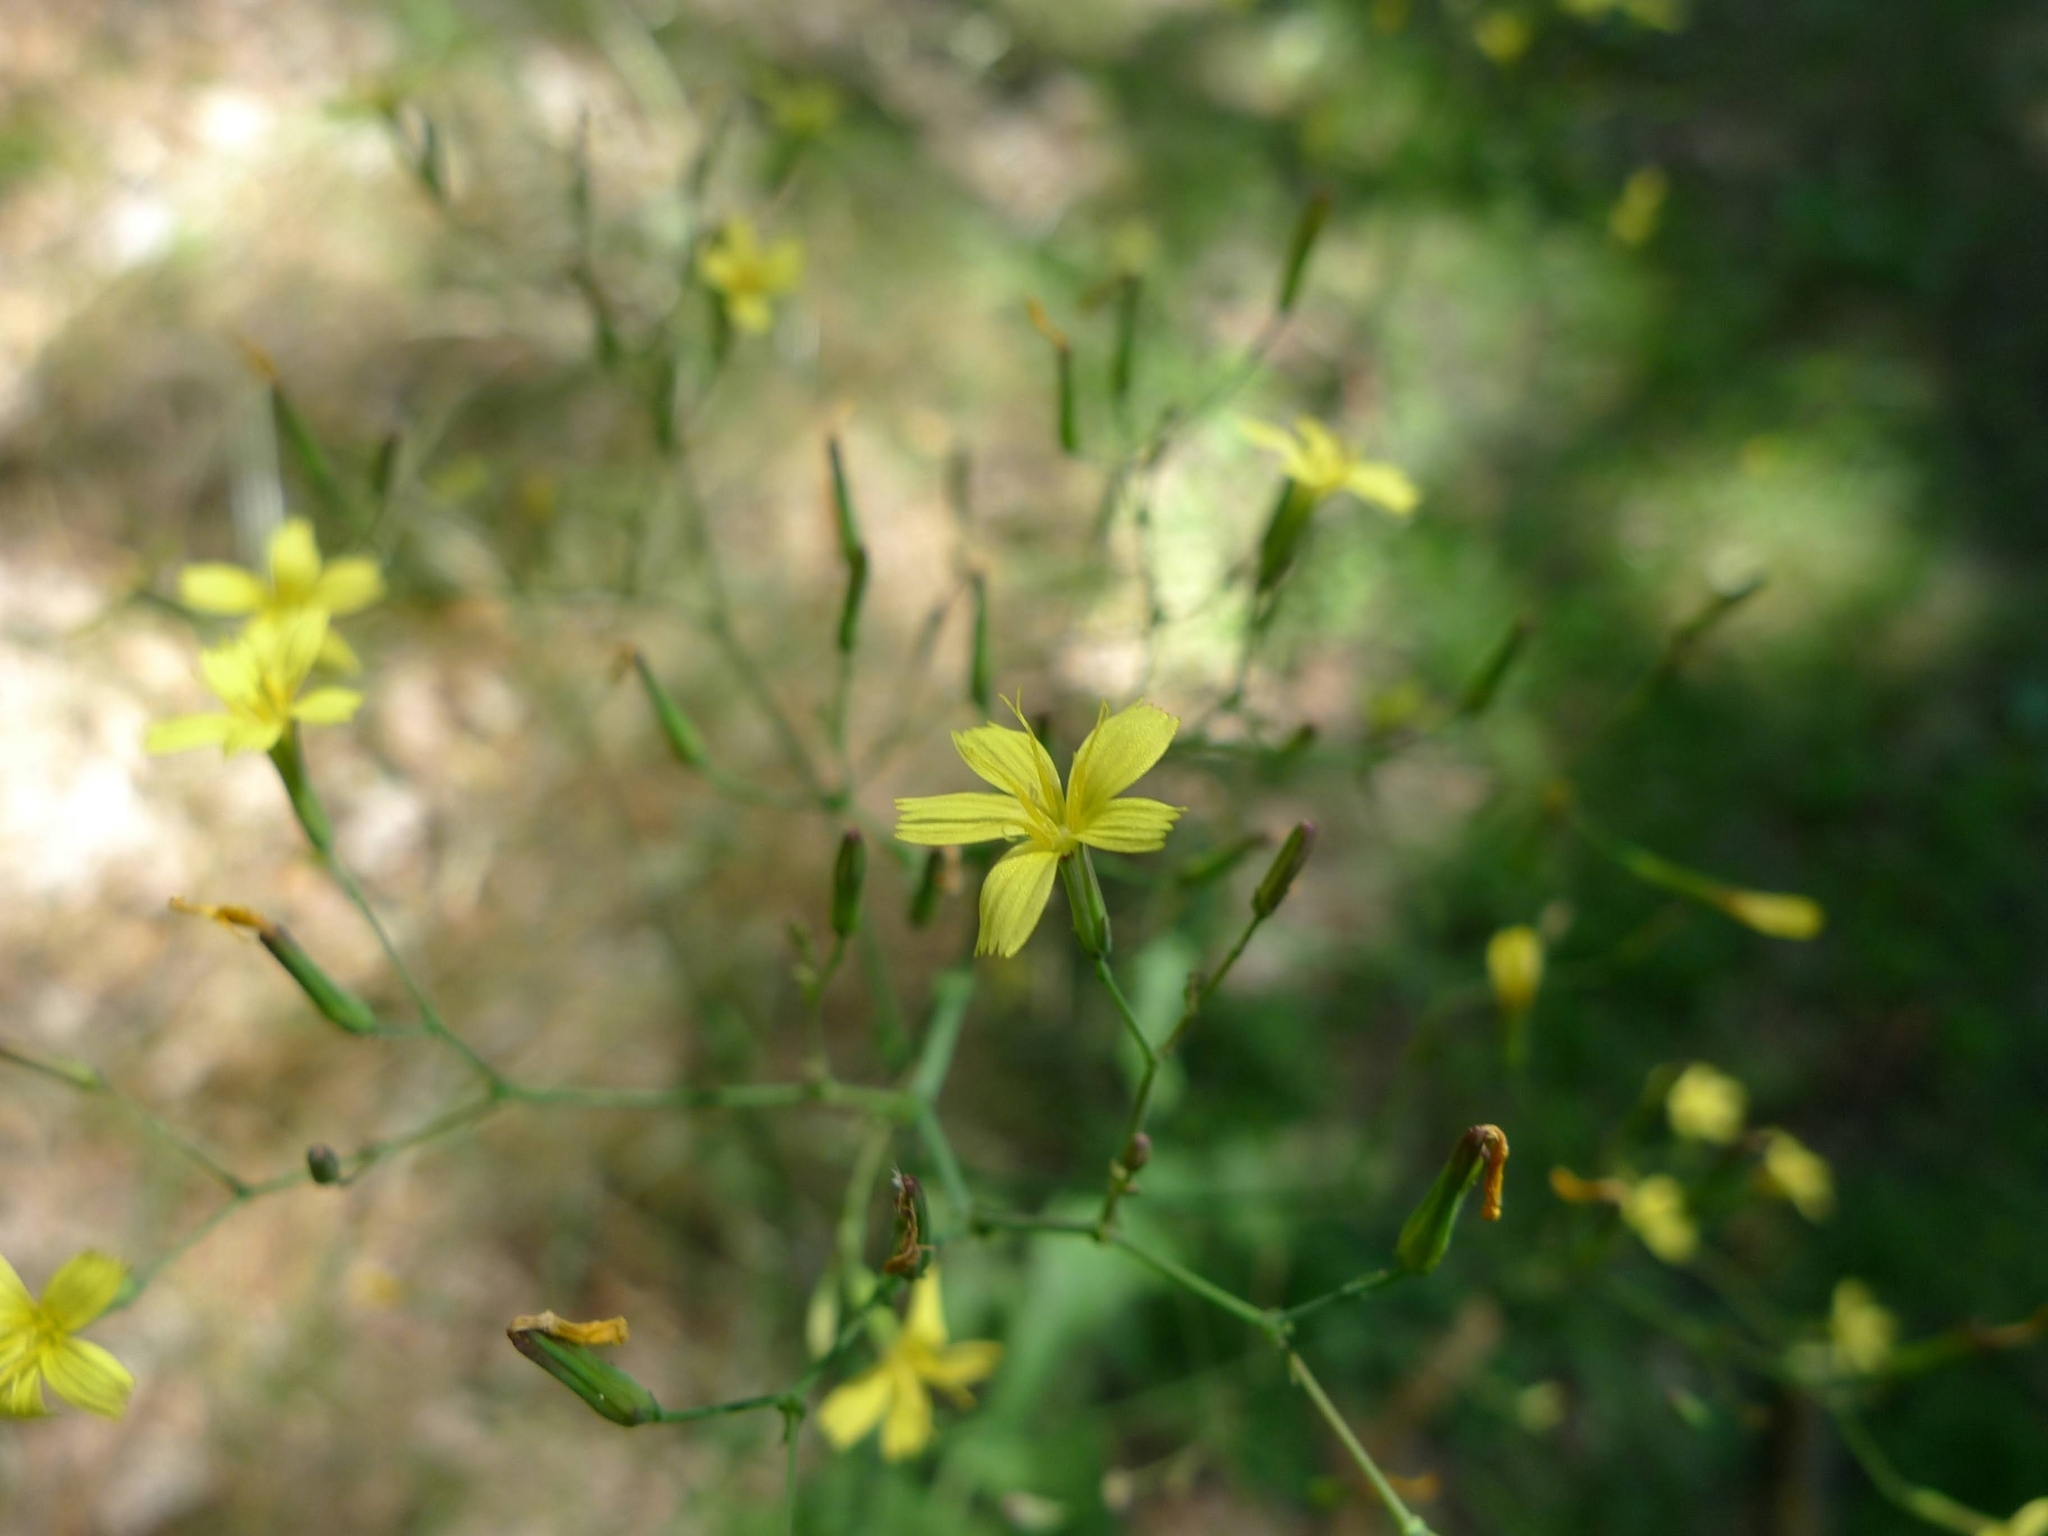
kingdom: Plantae
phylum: Tracheophyta
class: Magnoliopsida
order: Asterales
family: Asteraceae
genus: Mycelis
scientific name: Mycelis muralis
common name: Wall lettuce
